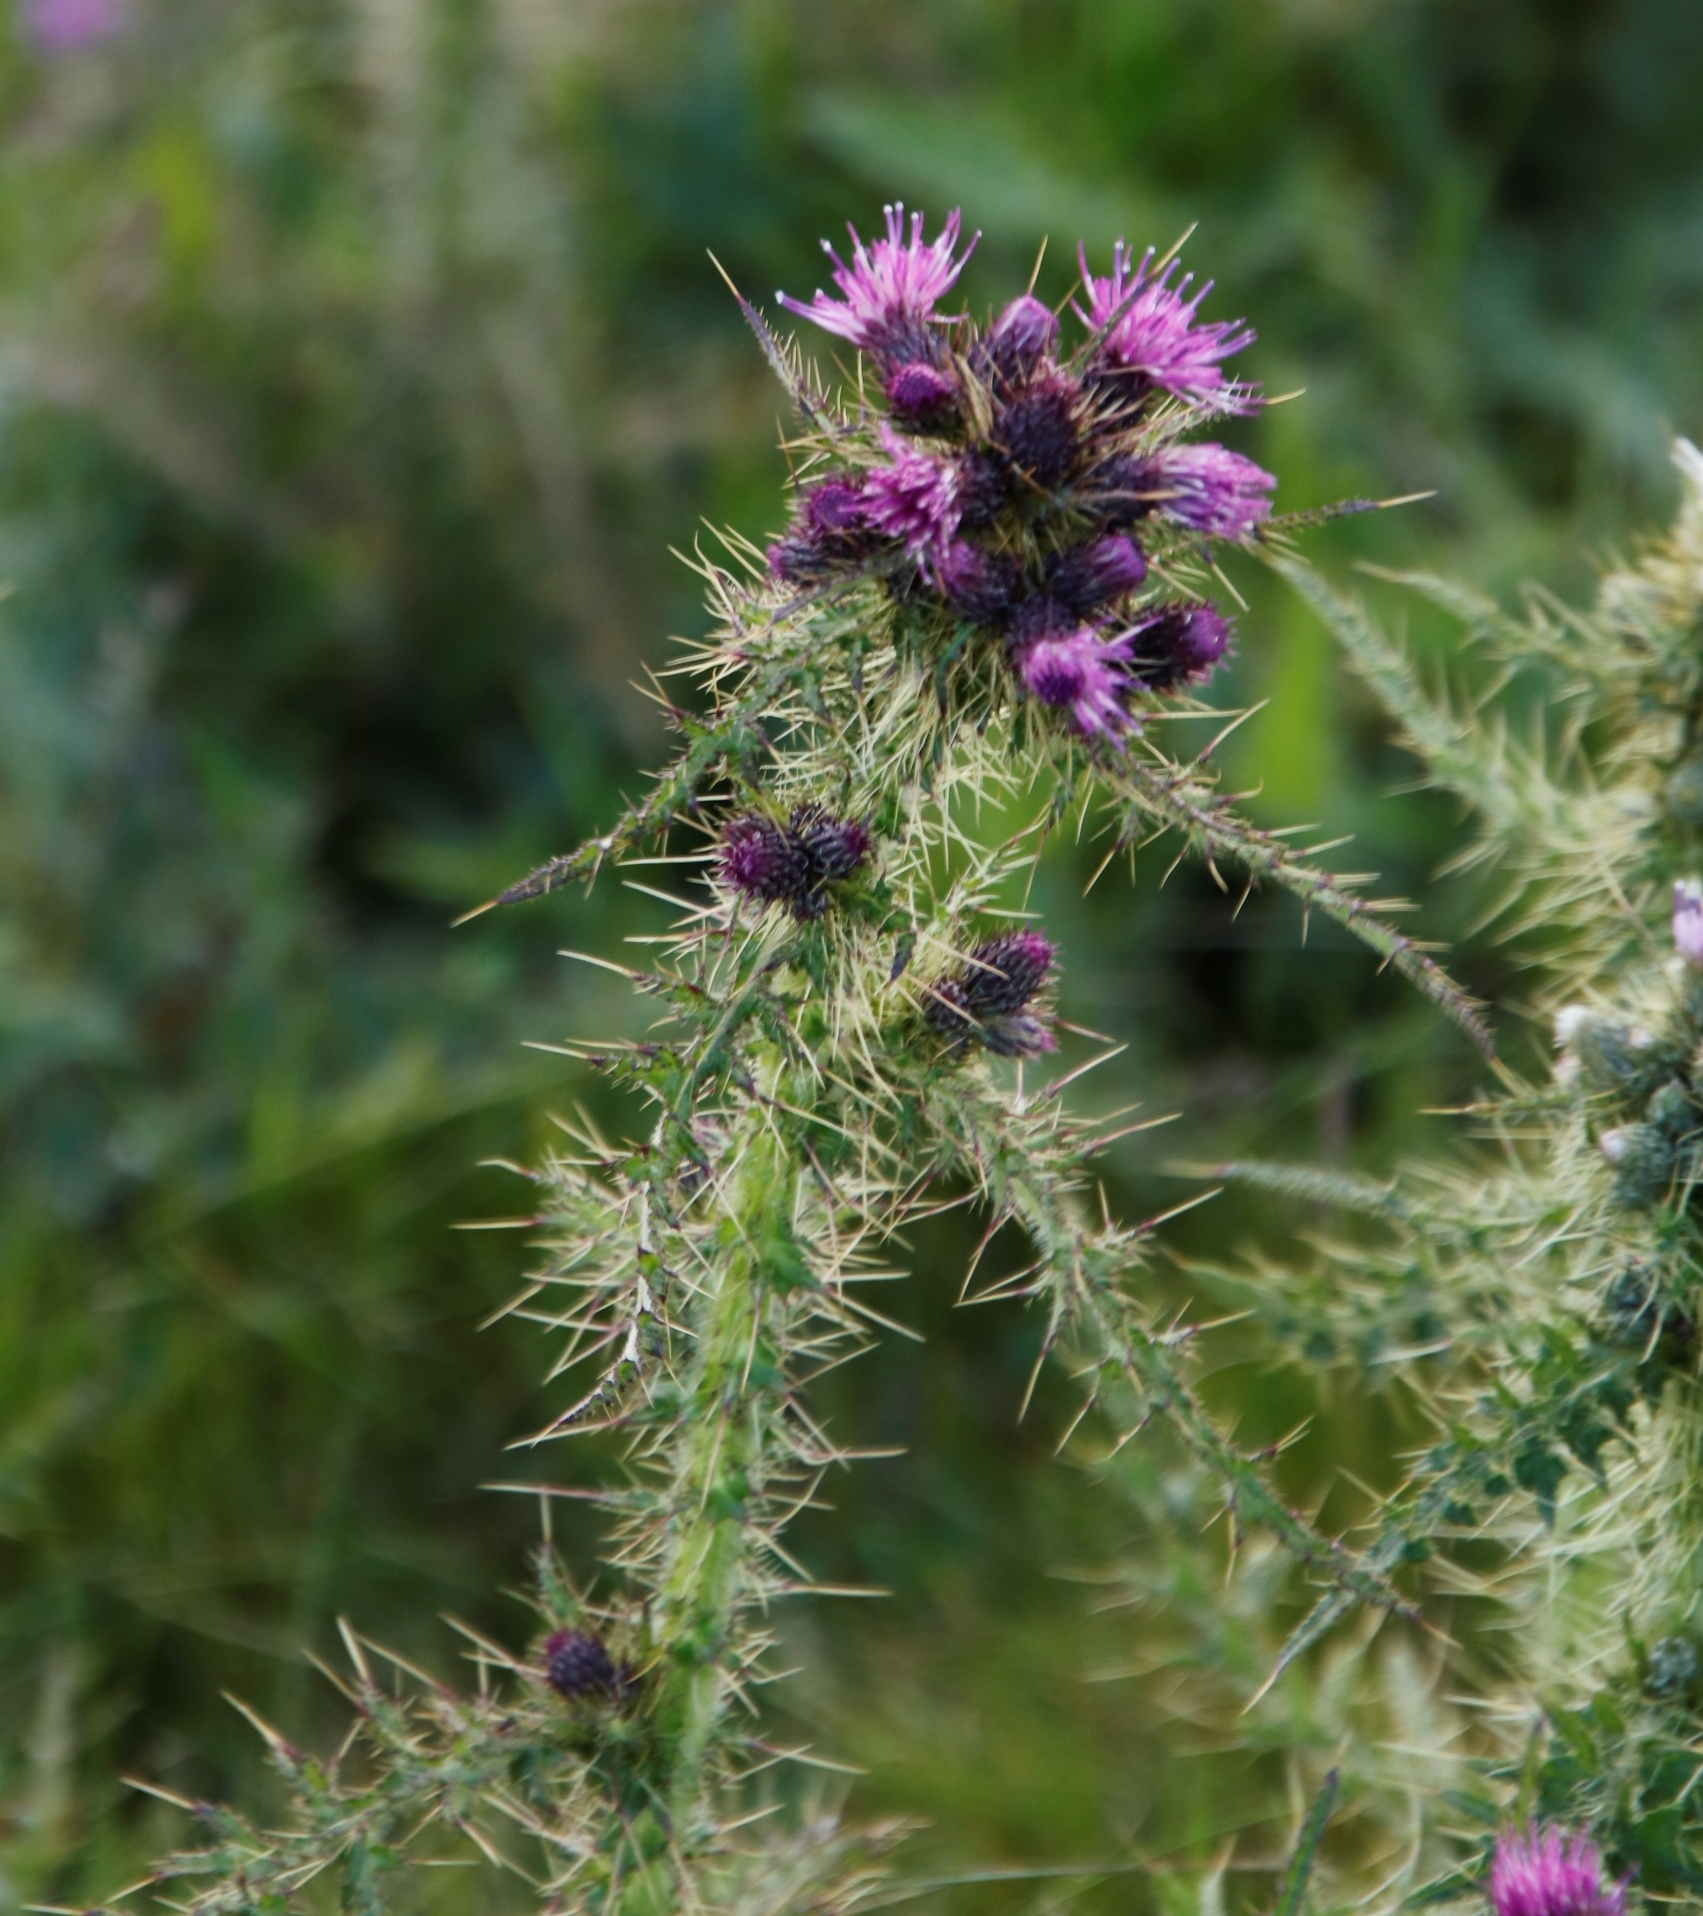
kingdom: Plantae
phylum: Tracheophyta
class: Magnoliopsida
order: Asterales
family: Asteraceae
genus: Cirsium
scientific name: Cirsium palustre
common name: Marsh thistle
